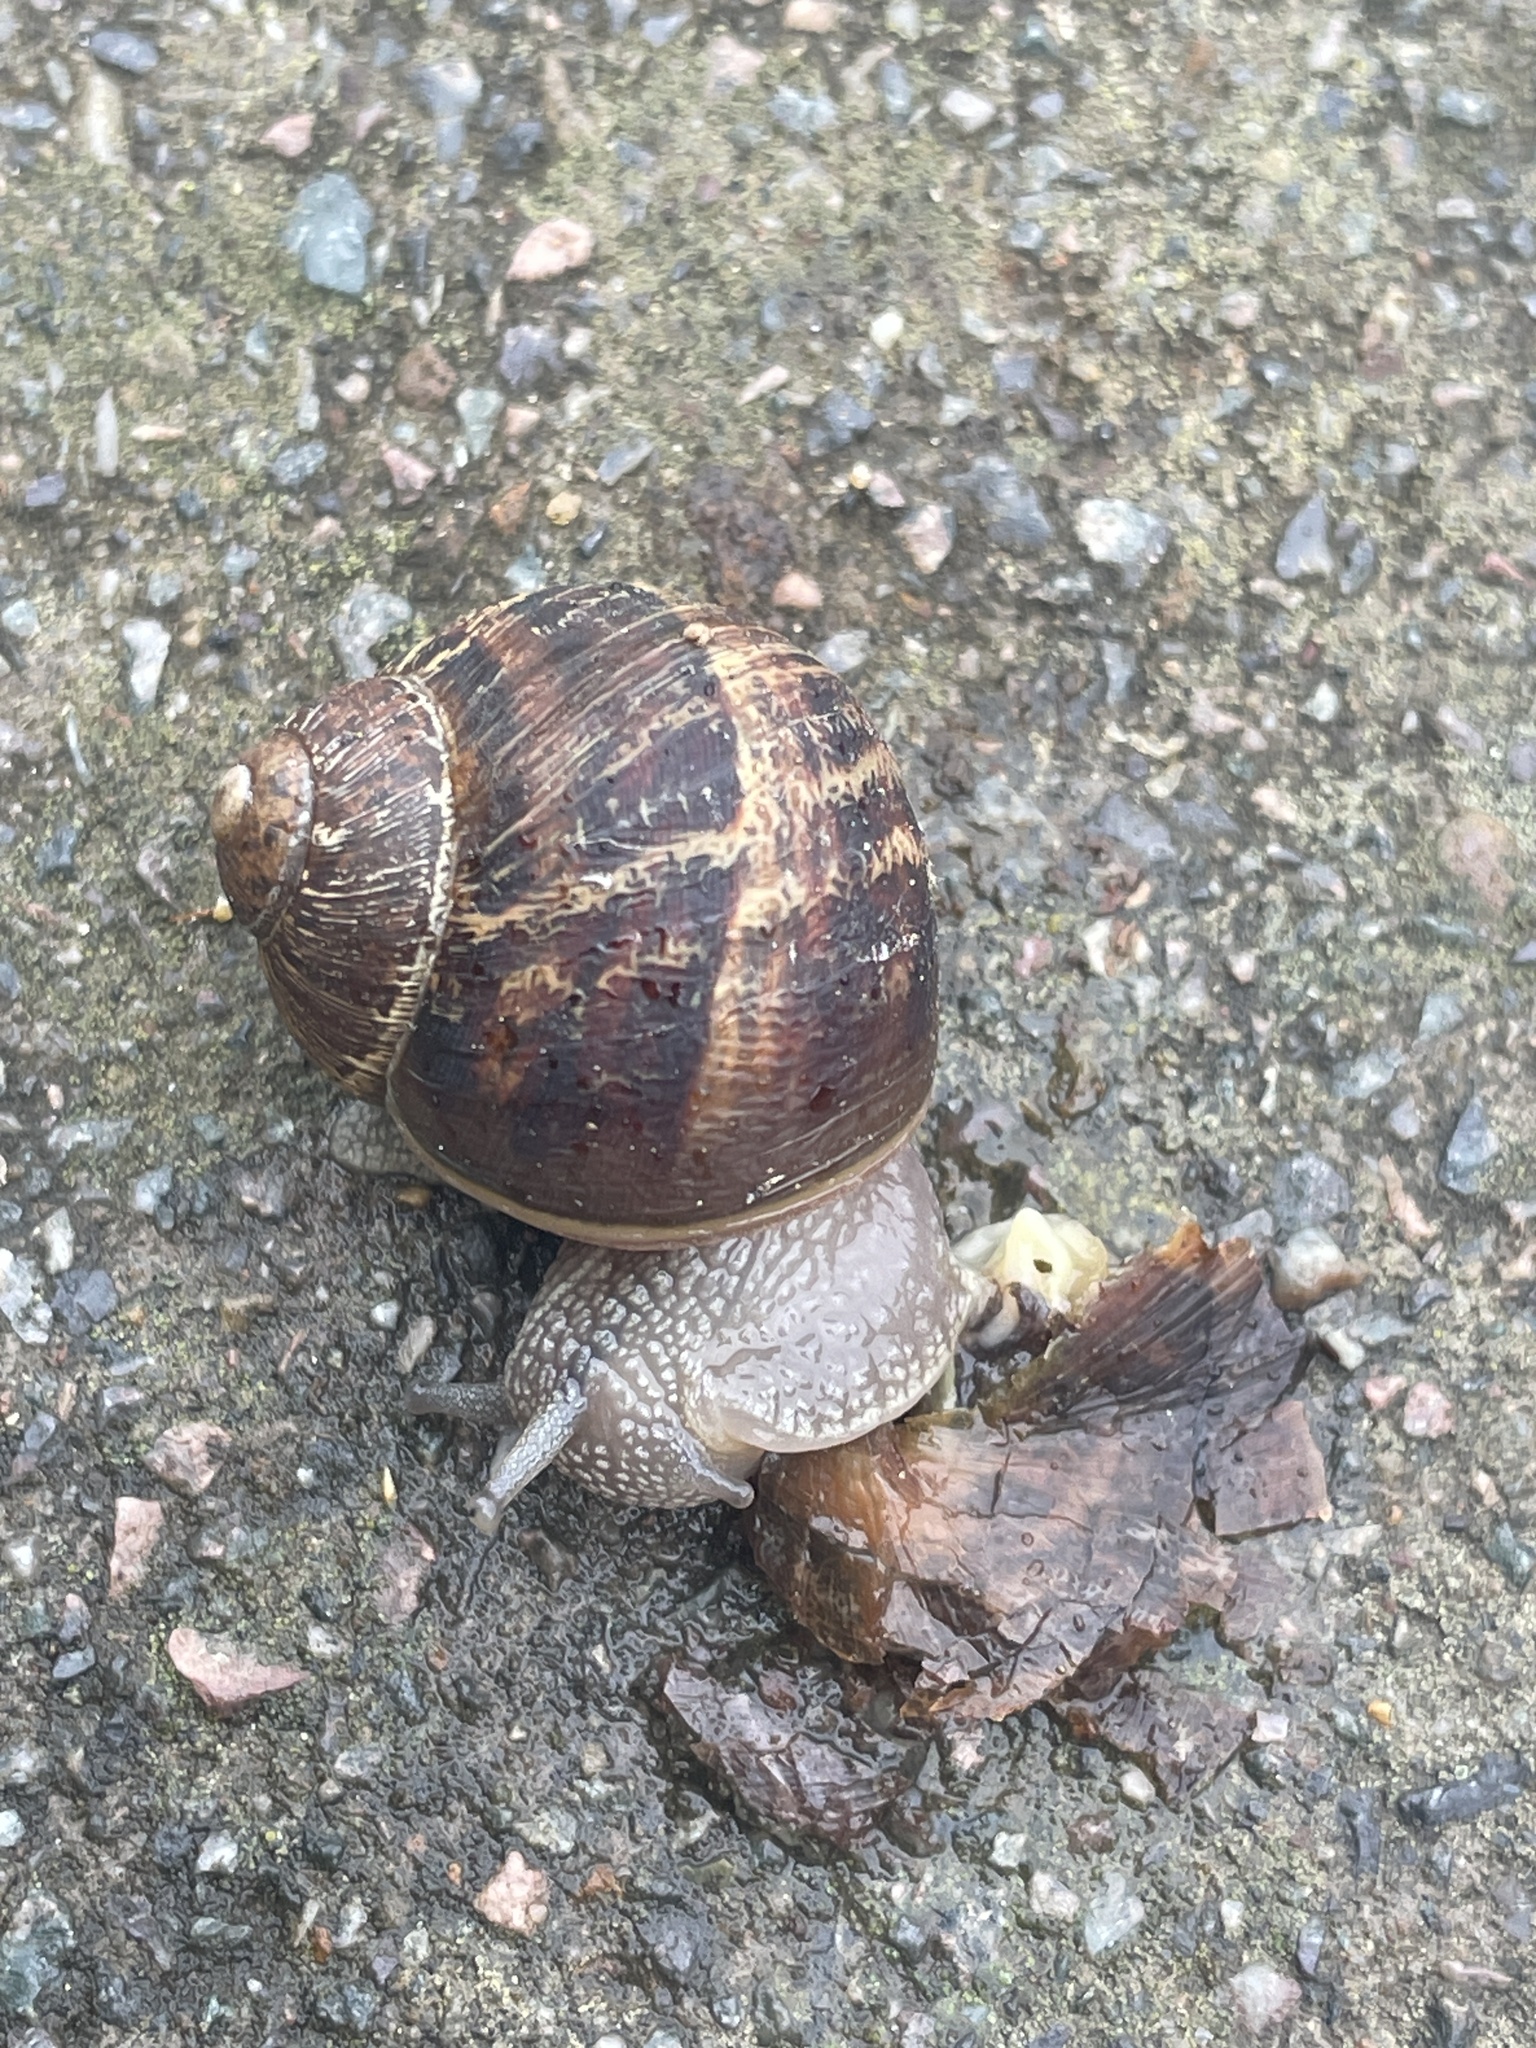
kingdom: Animalia
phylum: Mollusca
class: Gastropoda
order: Stylommatophora
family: Helicidae
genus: Cornu
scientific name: Cornu aspersum
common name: Brown garden snail
